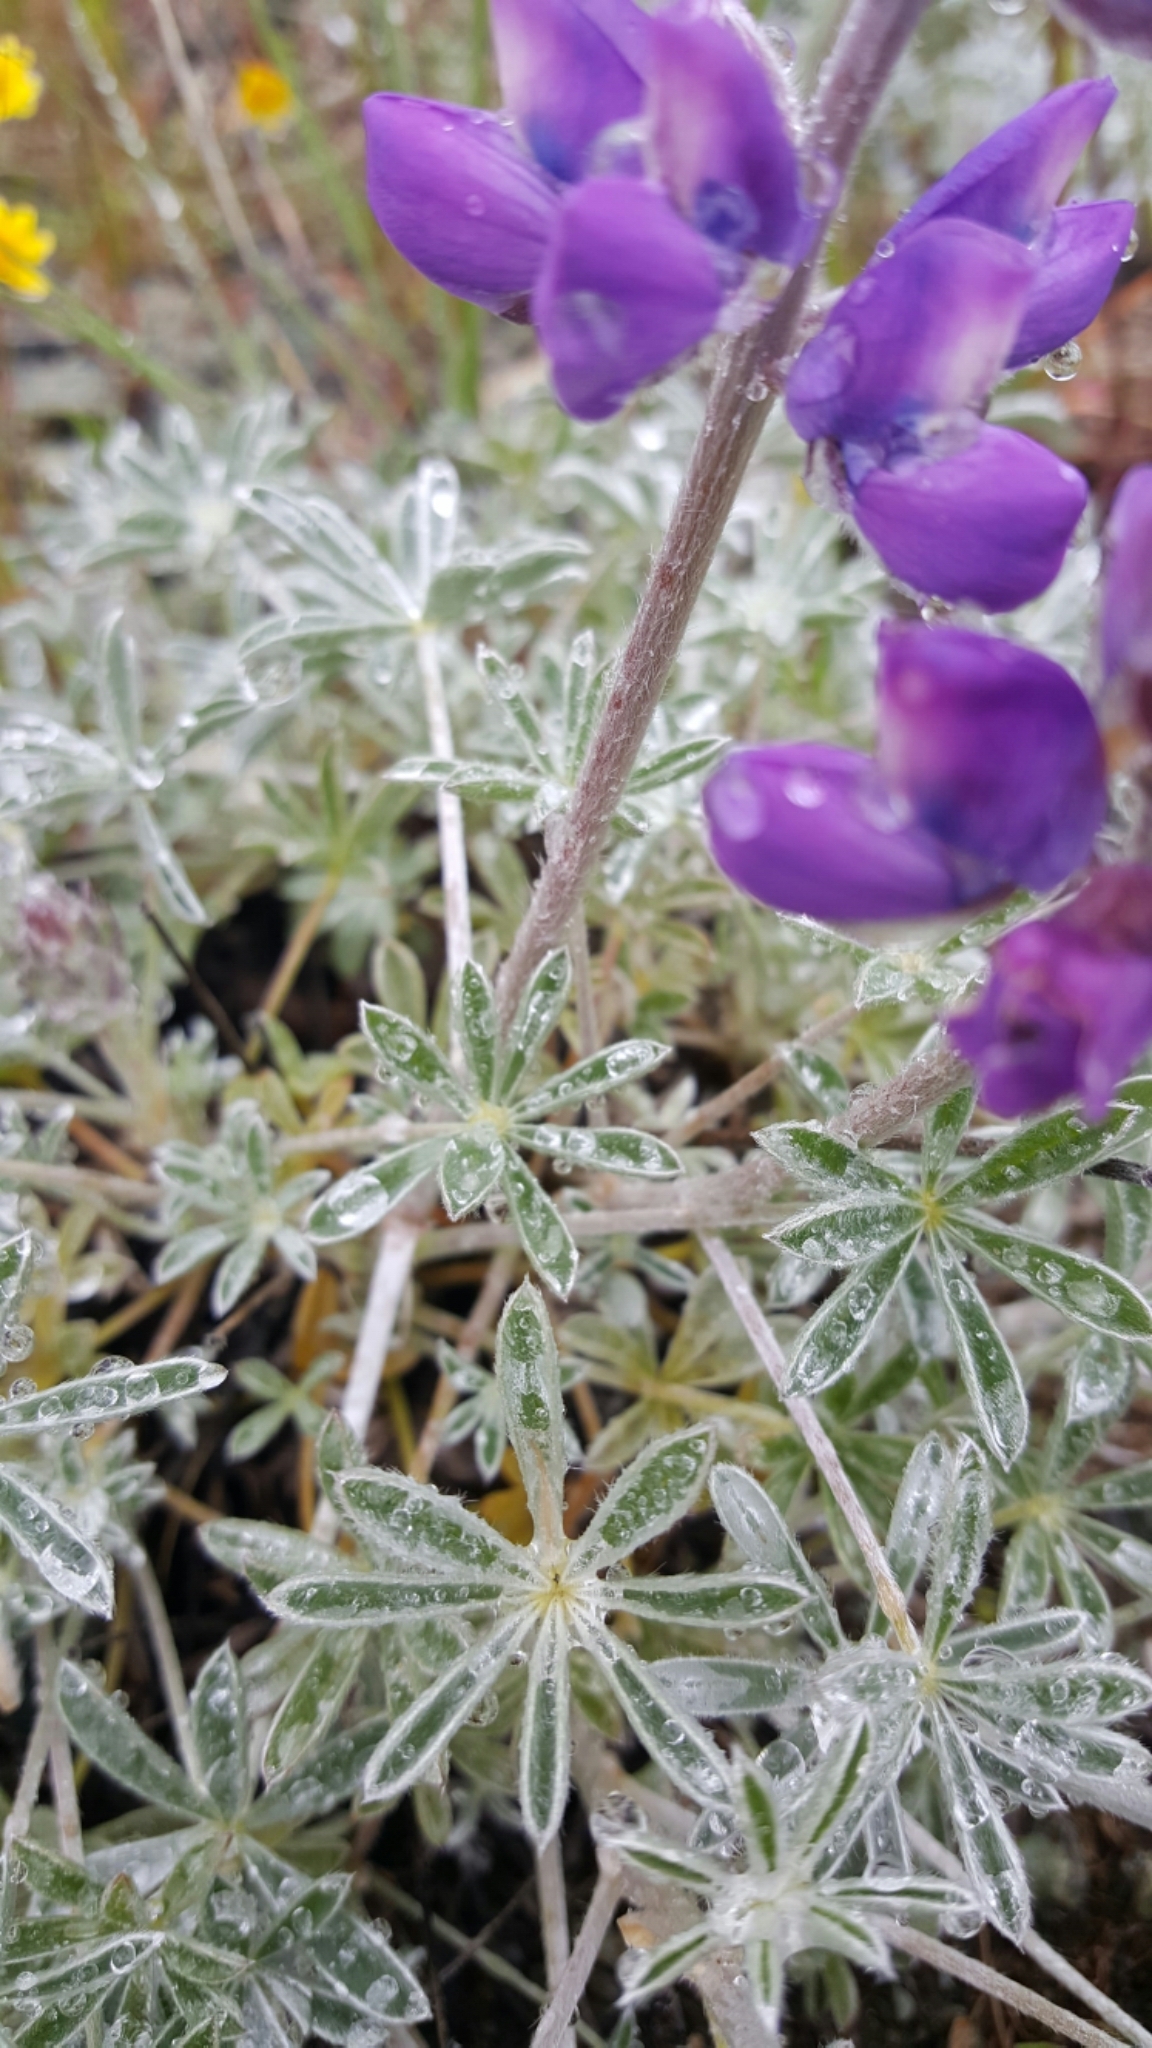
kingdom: Plantae
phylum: Tracheophyta
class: Magnoliopsida
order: Fabales
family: Fabaceae
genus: Lupinus
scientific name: Lupinus albifrons
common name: Foothill lupine
